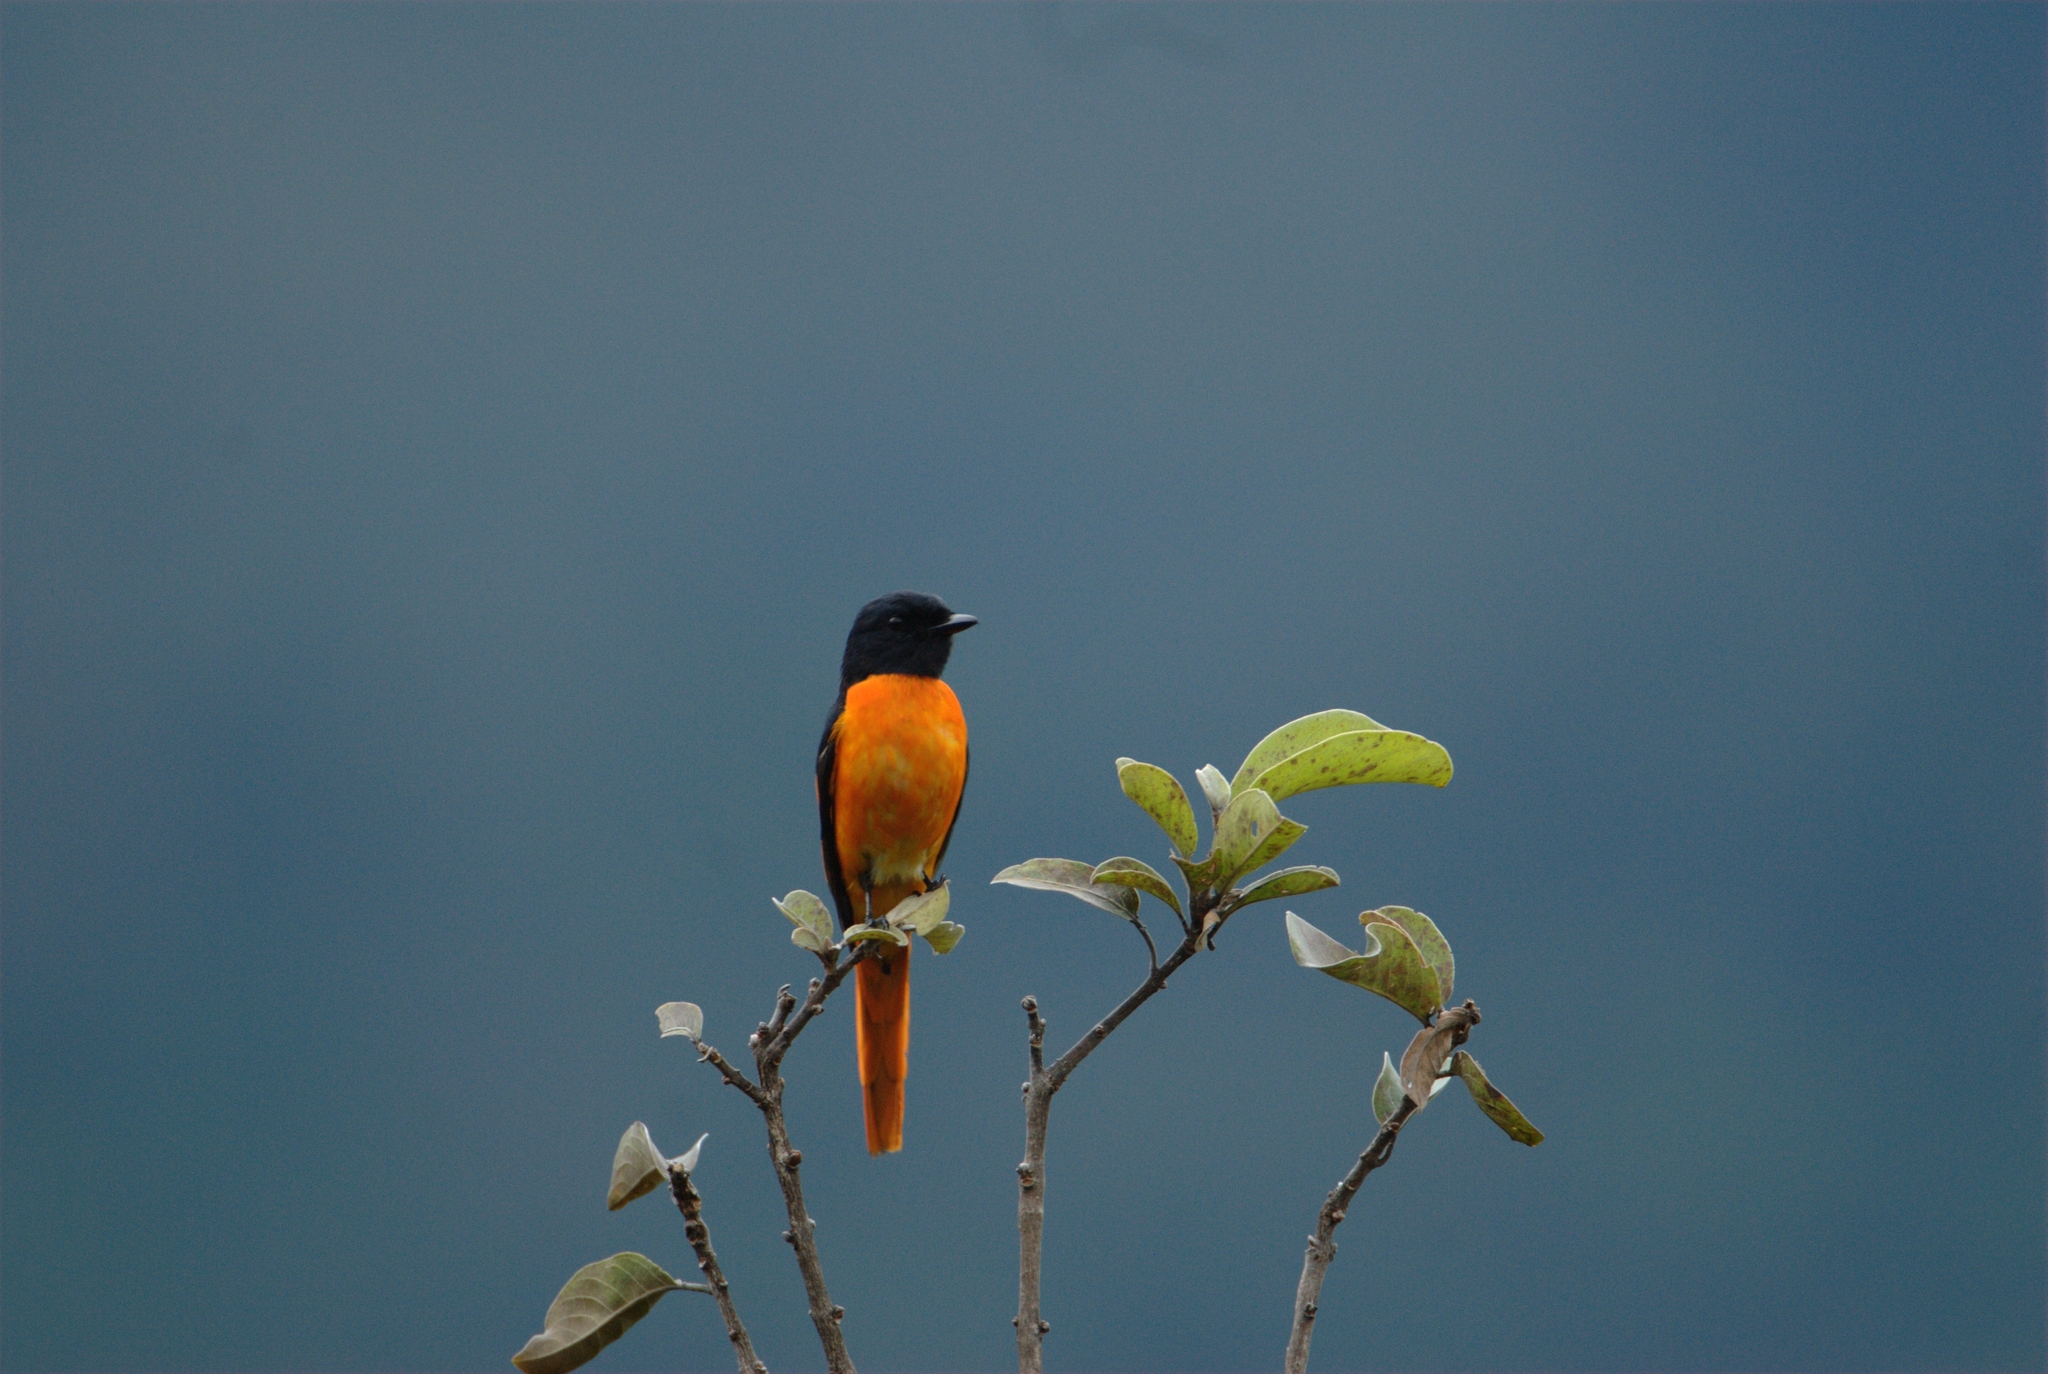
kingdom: Animalia
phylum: Chordata
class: Aves
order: Passeriformes
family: Campephagidae
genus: Pericrocotus
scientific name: Pericrocotus flammeus
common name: Orange minivet
